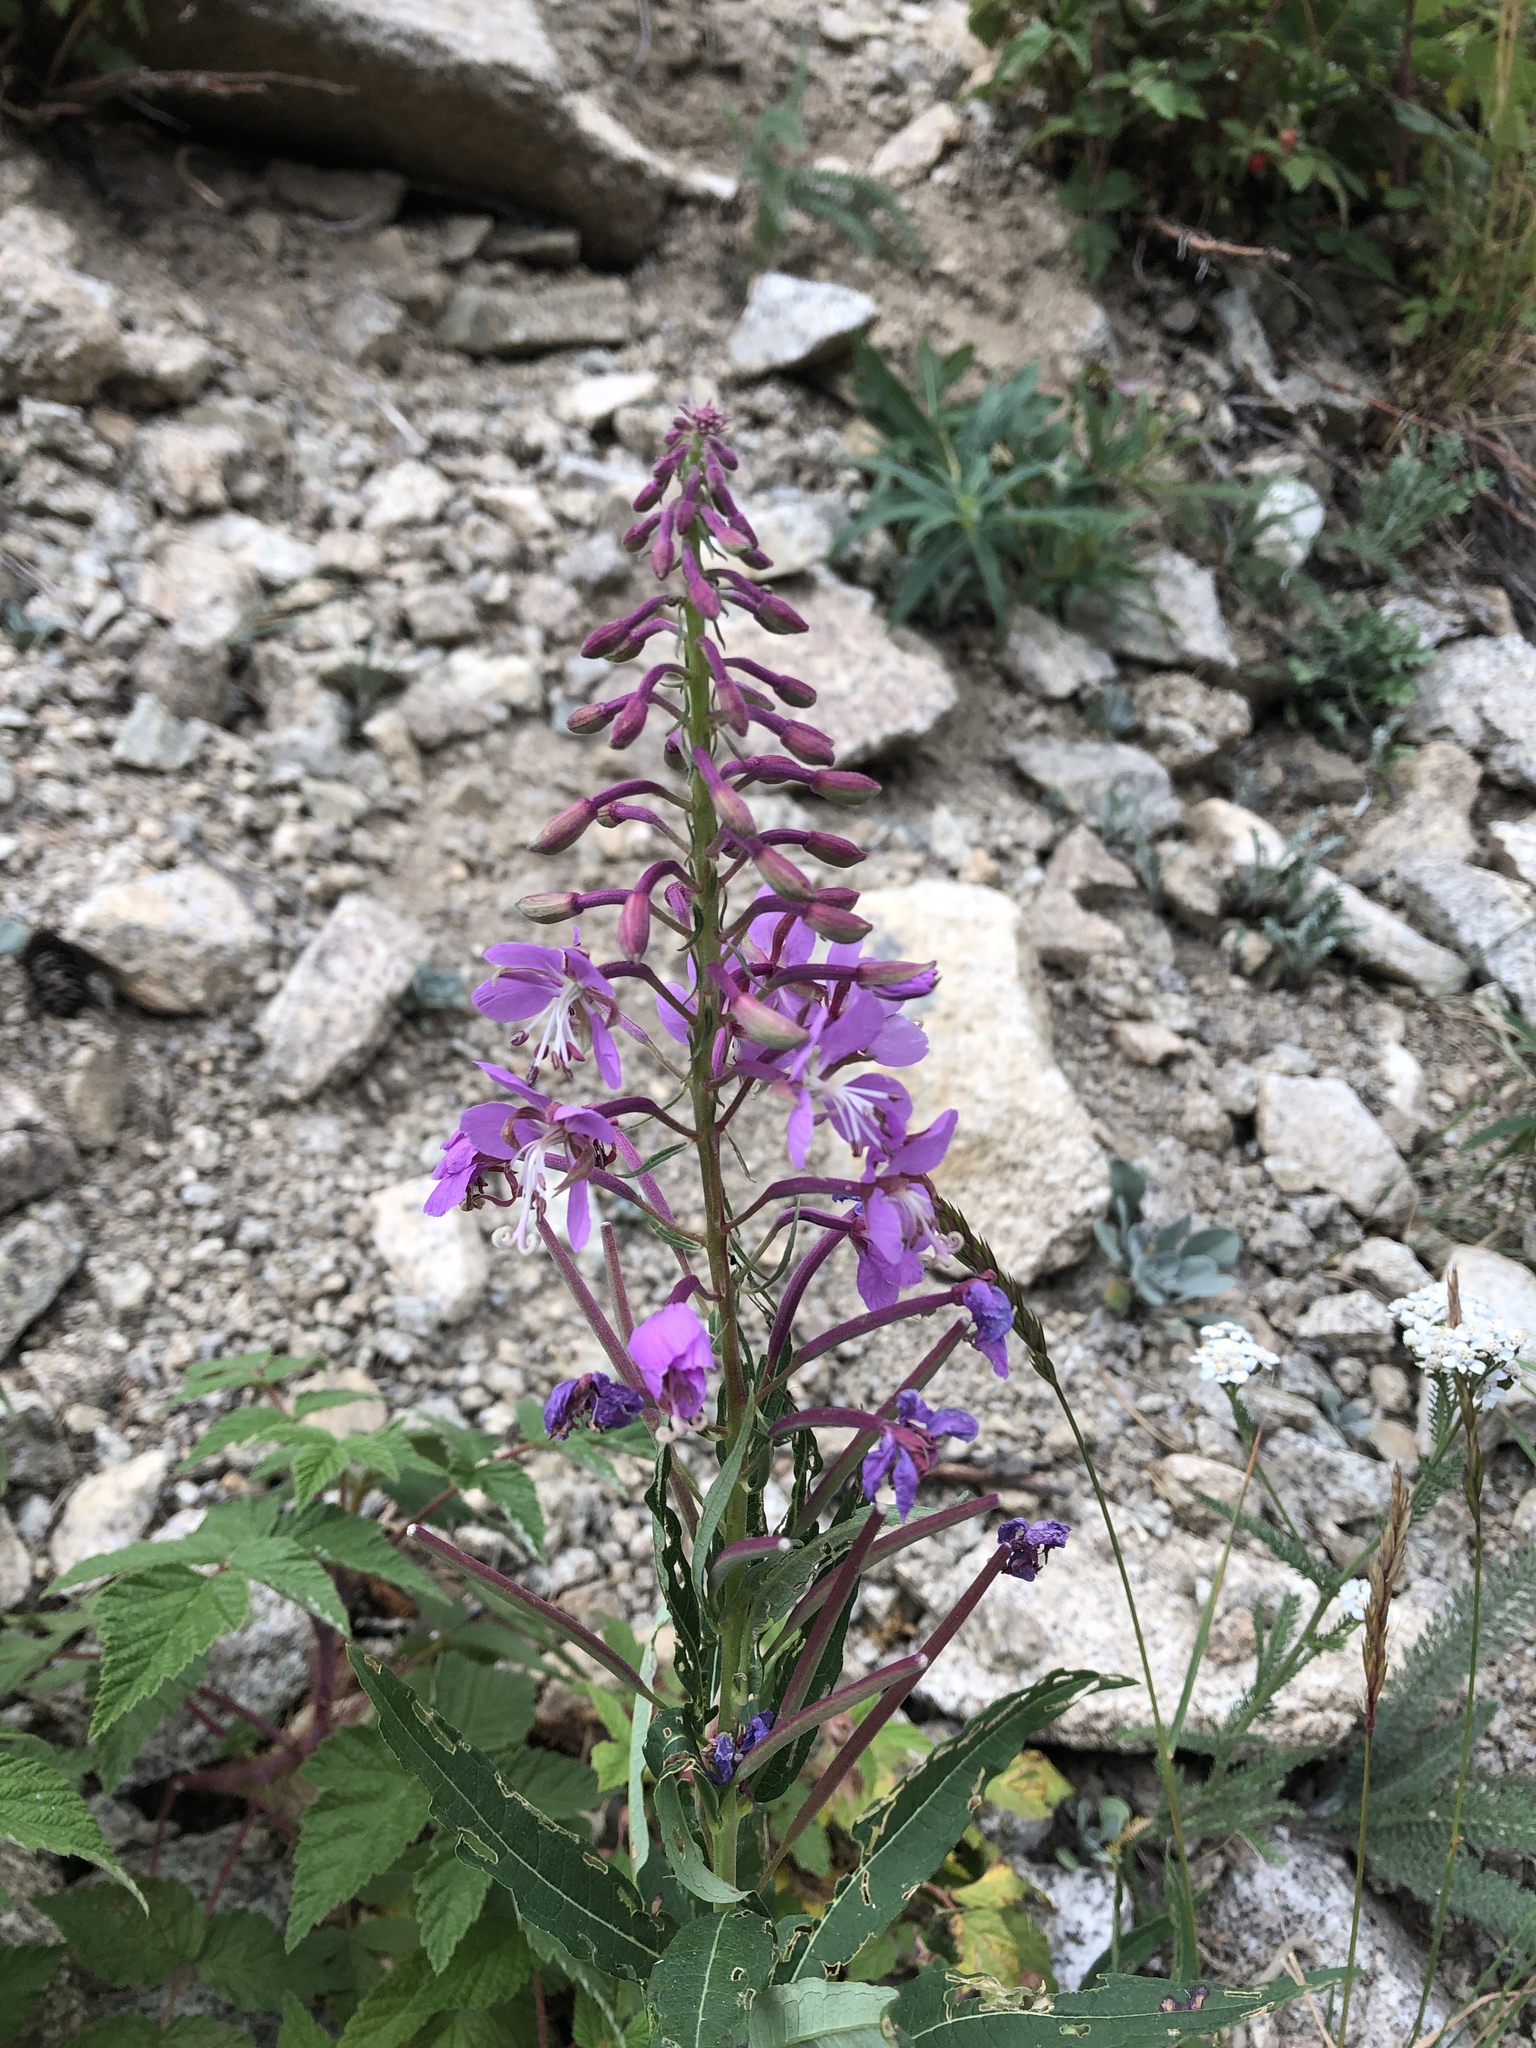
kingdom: Plantae
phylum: Tracheophyta
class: Magnoliopsida
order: Myrtales
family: Onagraceae
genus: Chamaenerion
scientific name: Chamaenerion angustifolium
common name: Fireweed
